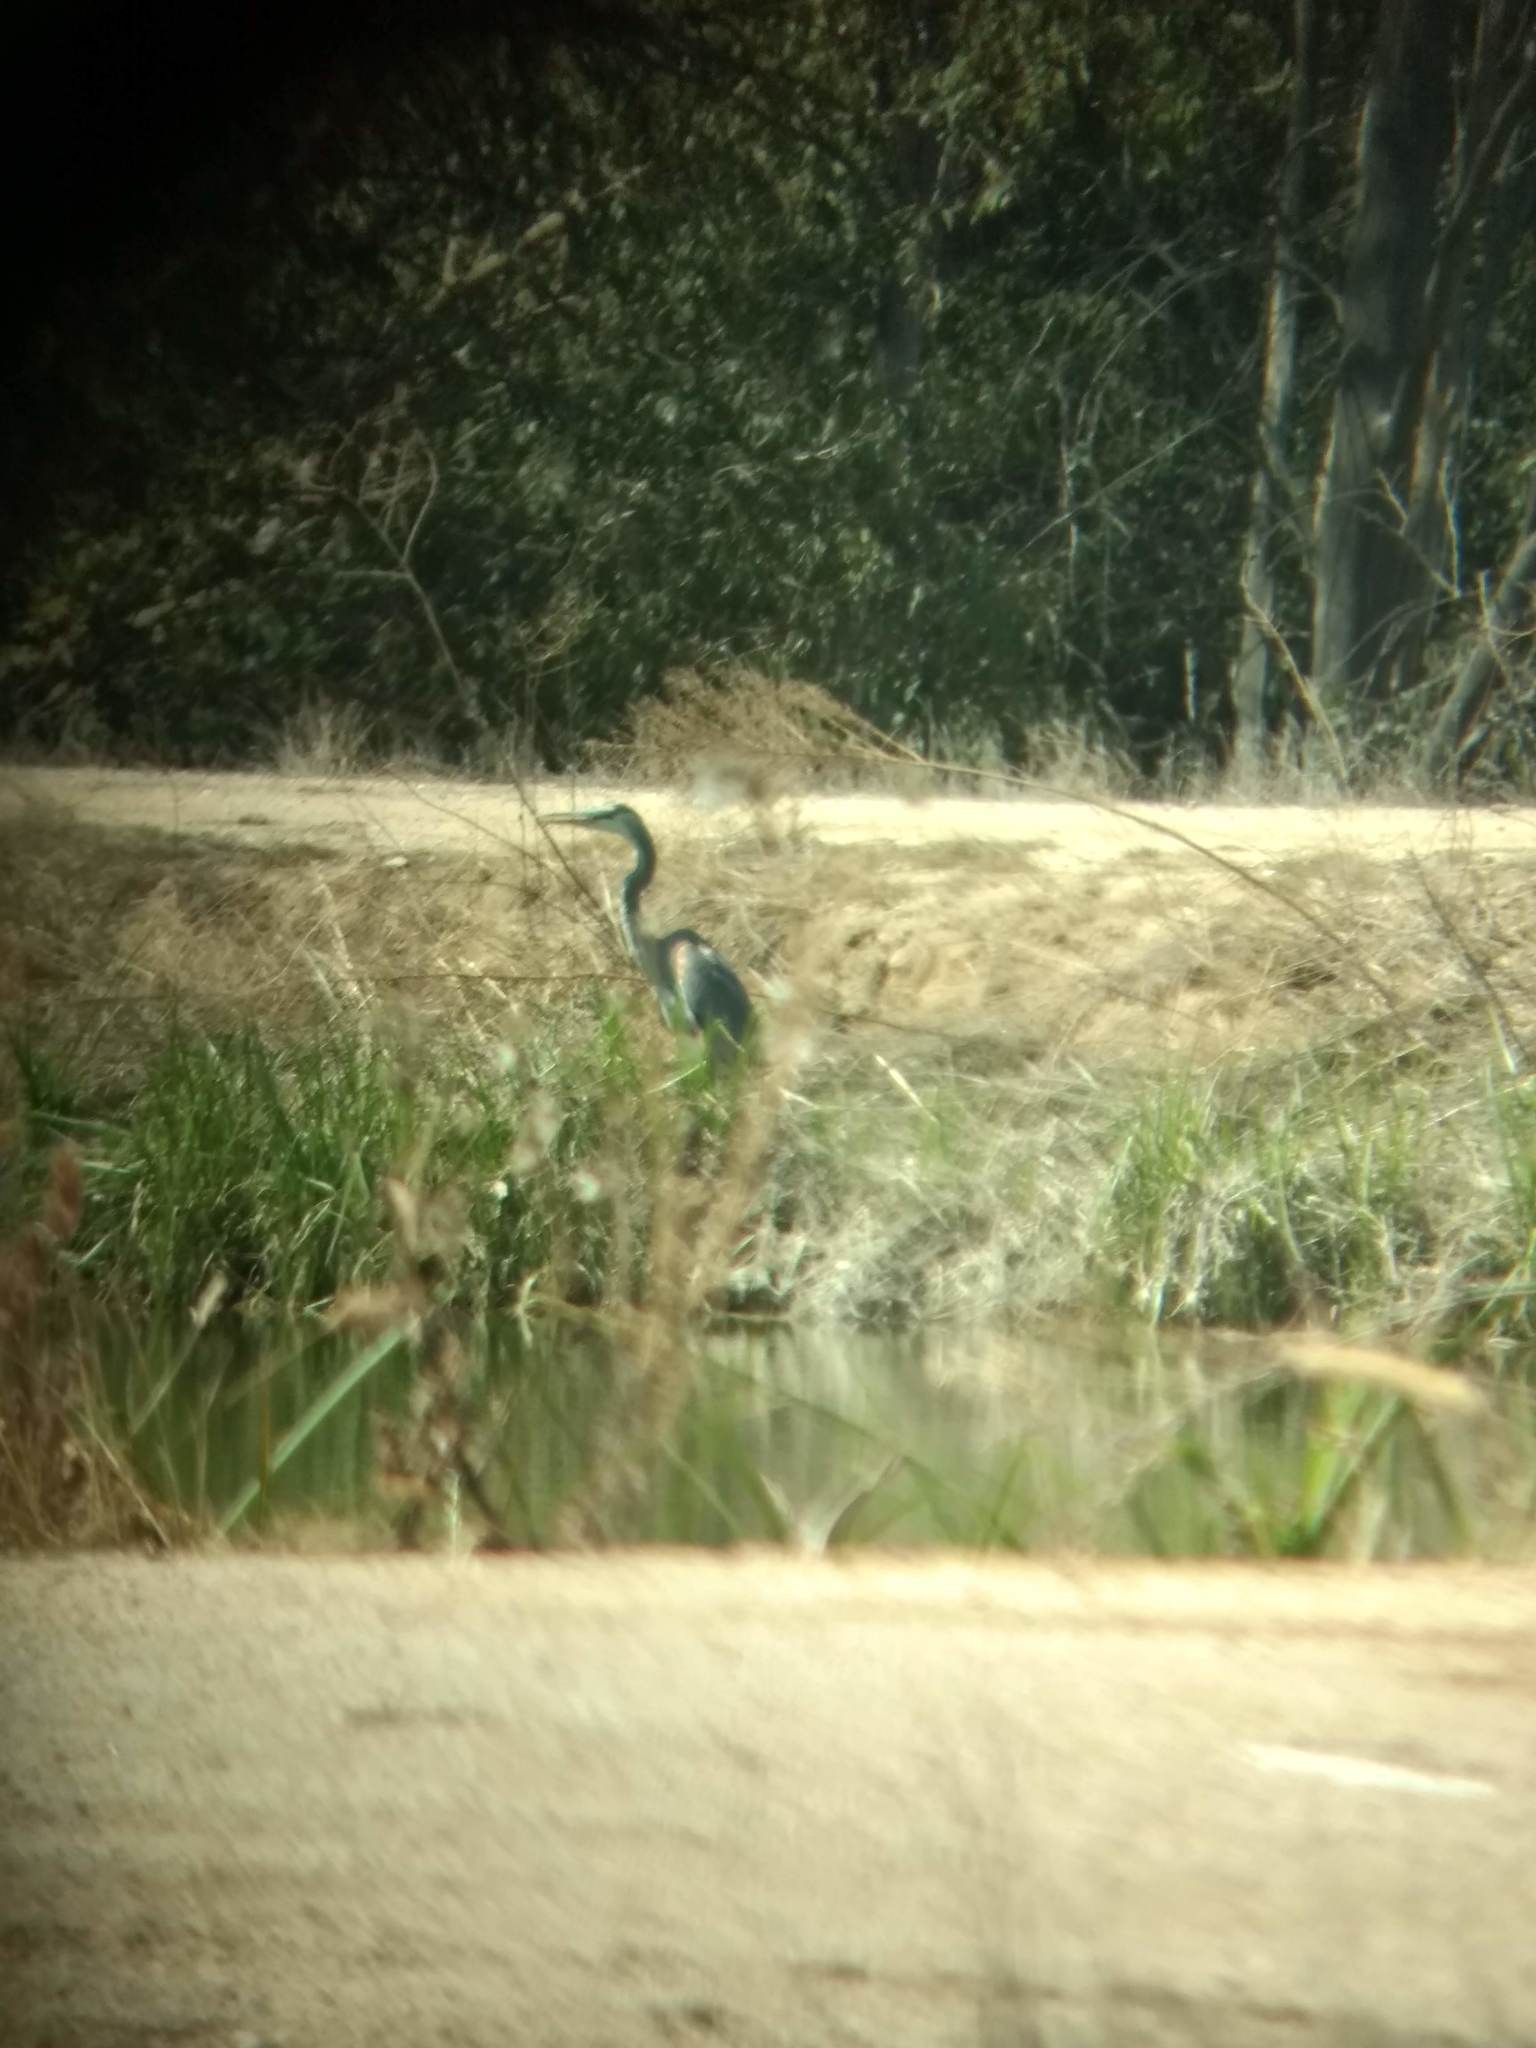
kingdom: Animalia
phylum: Chordata
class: Aves
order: Pelecaniformes
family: Ardeidae
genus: Ardea
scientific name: Ardea herodias
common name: Great blue heron
